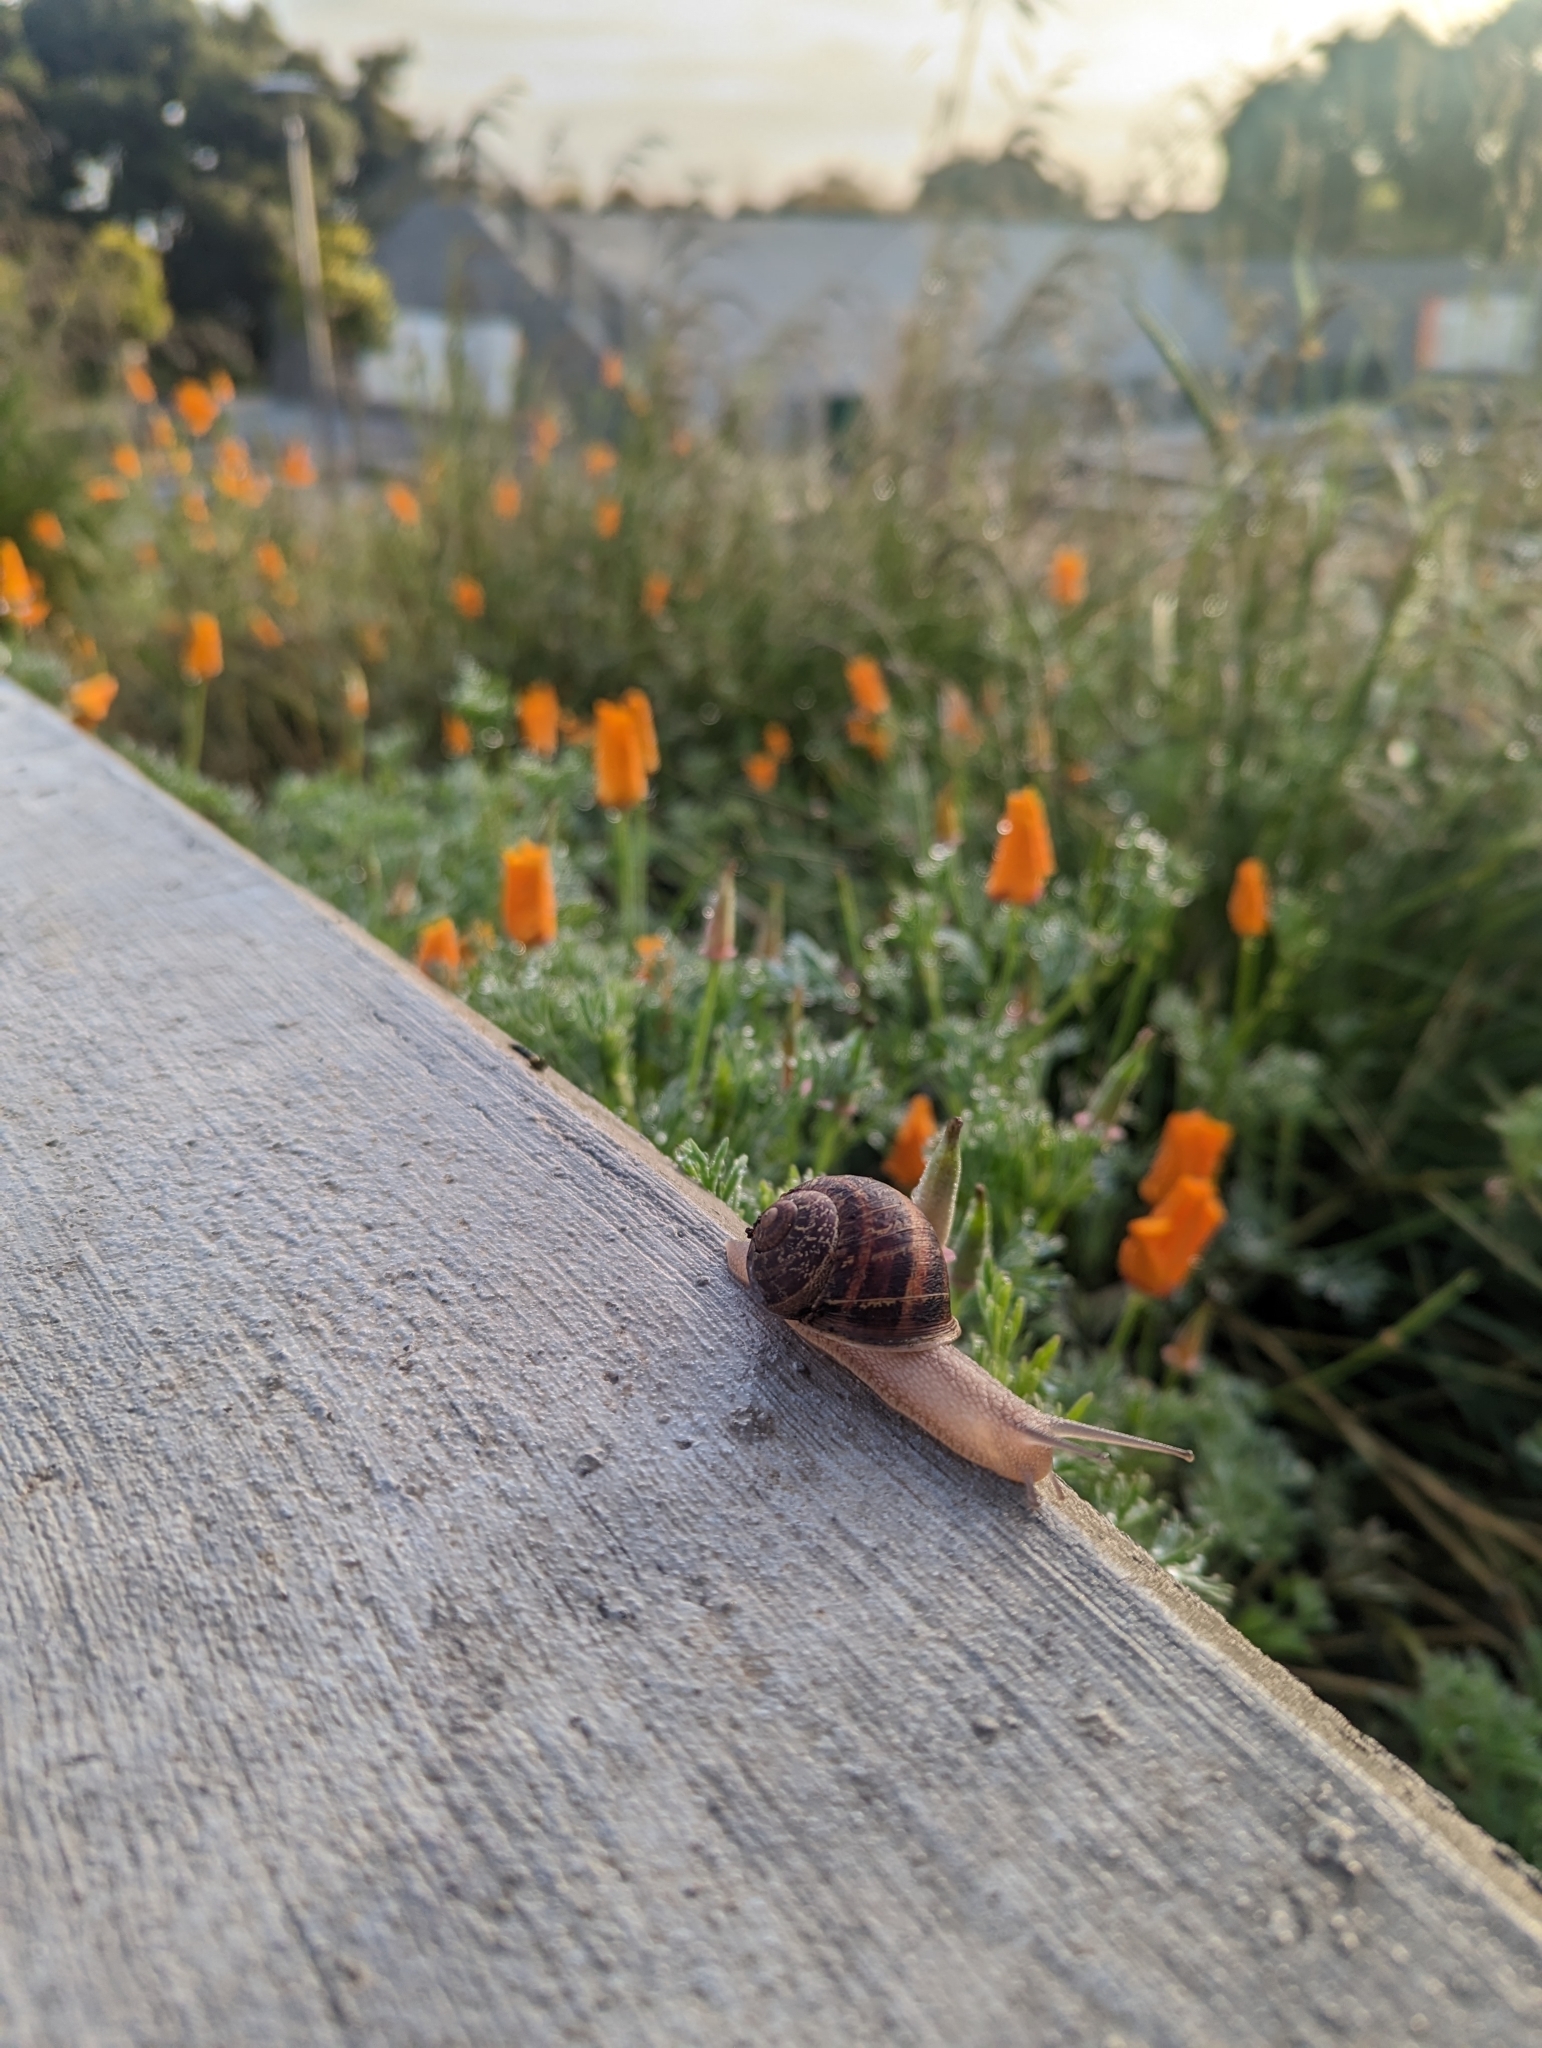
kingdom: Animalia
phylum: Mollusca
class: Gastropoda
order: Stylommatophora
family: Helicidae
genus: Cornu
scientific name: Cornu aspersum
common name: Brown garden snail
